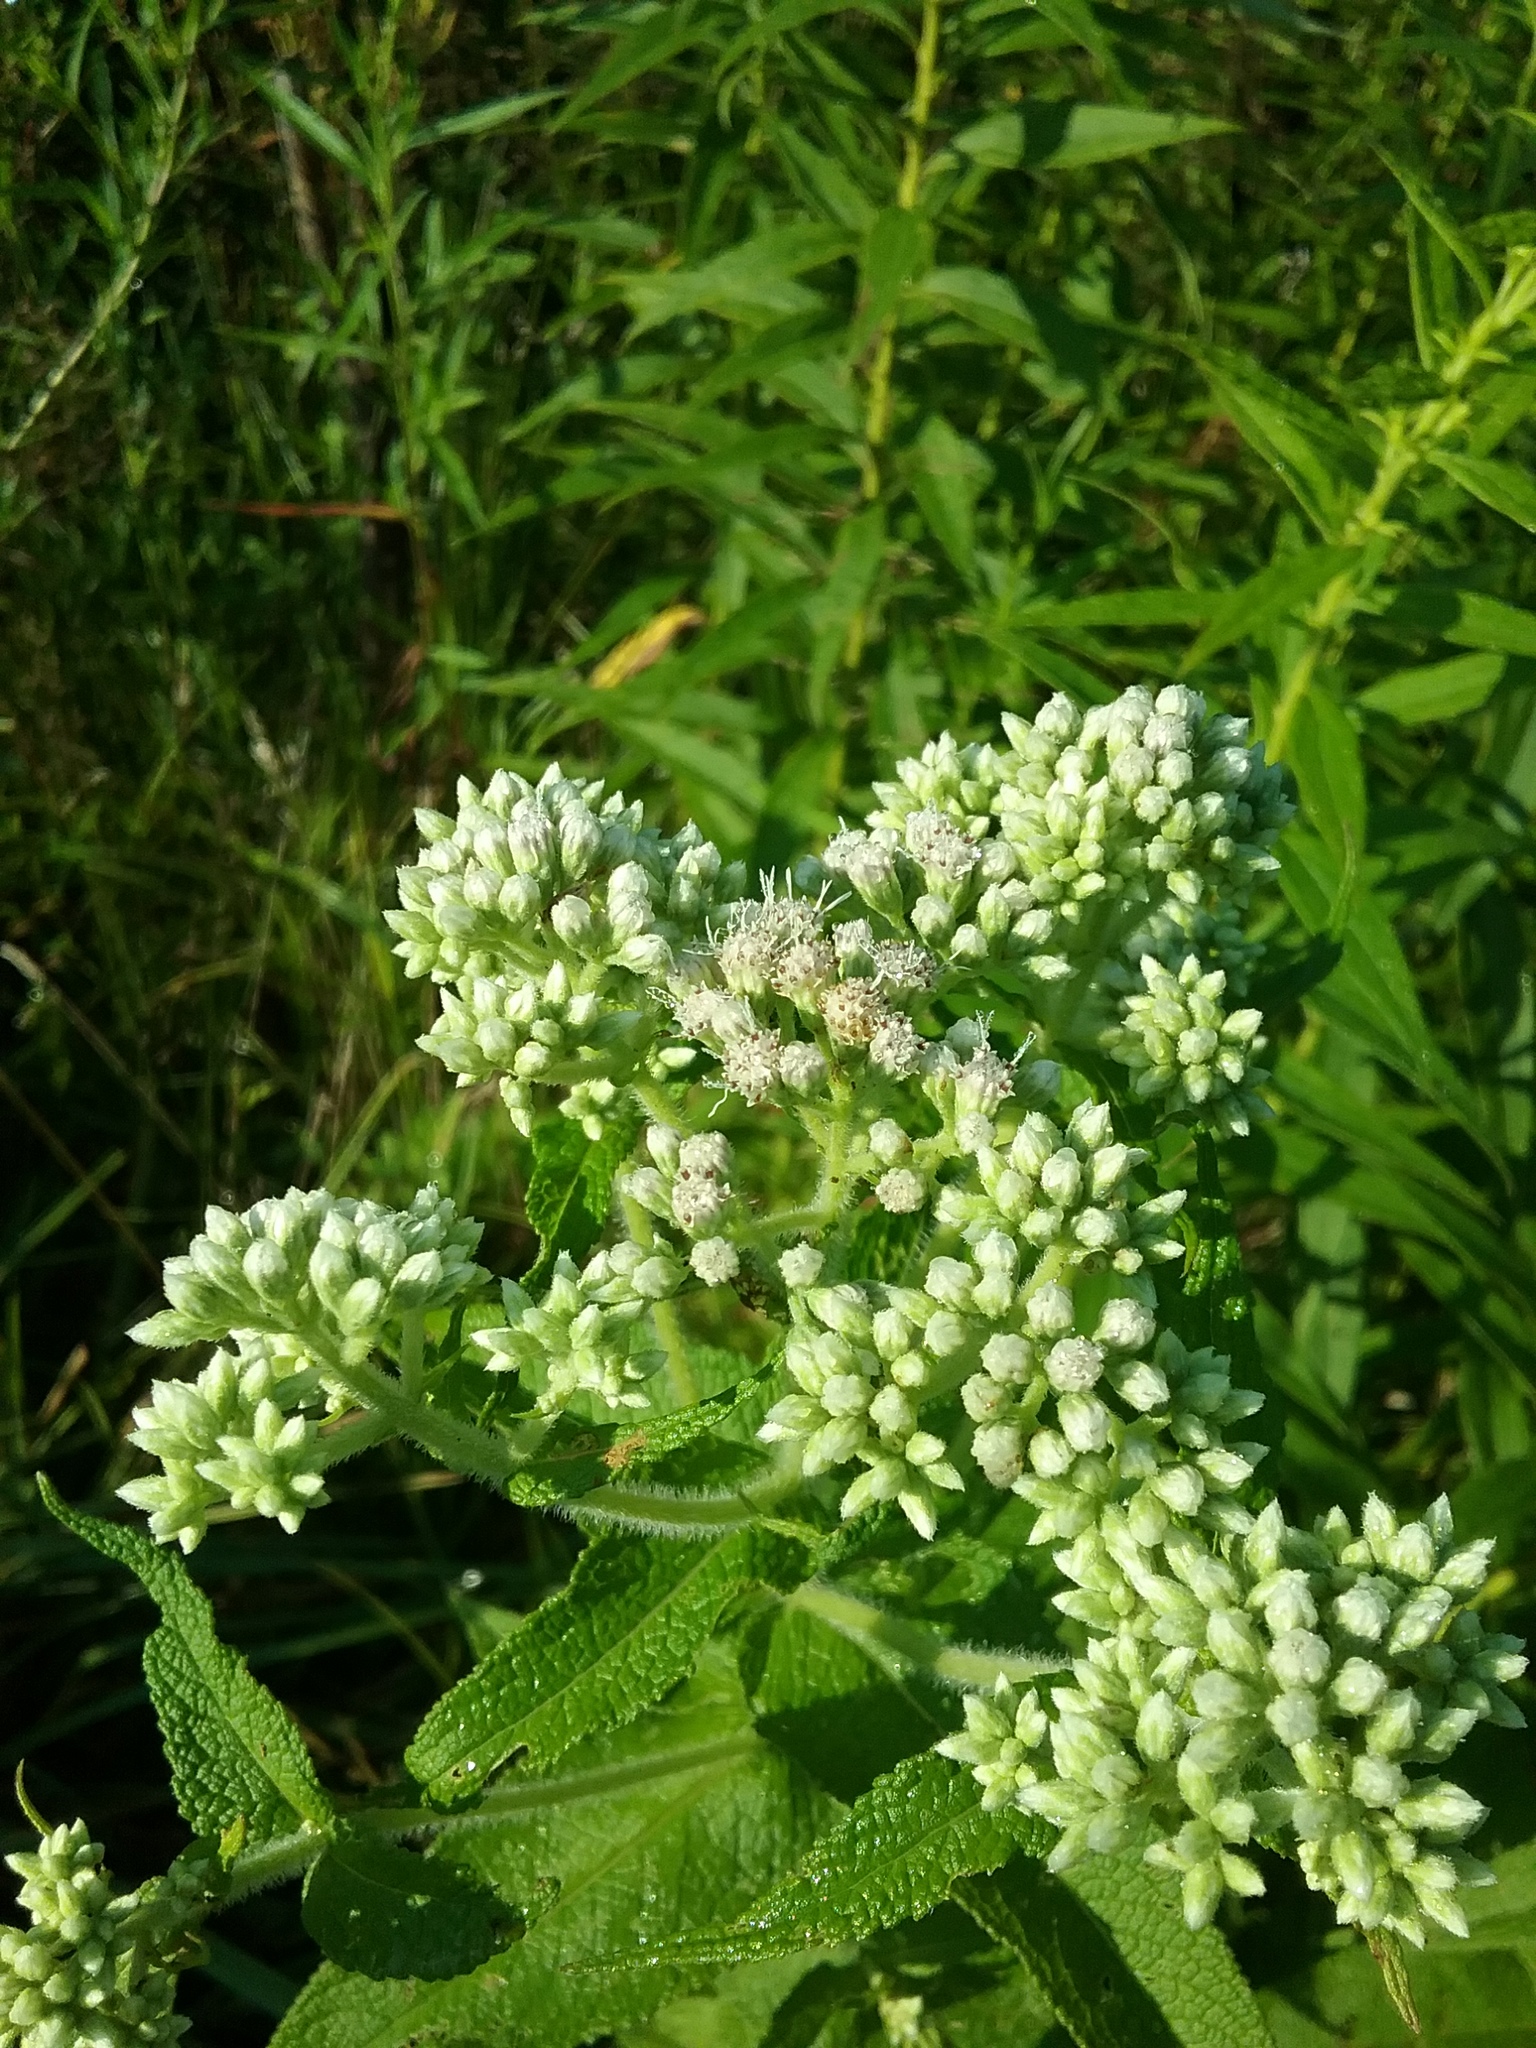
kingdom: Plantae
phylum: Tracheophyta
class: Magnoliopsida
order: Asterales
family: Asteraceae
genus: Eupatorium
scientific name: Eupatorium perfoliatum
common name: Boneset
